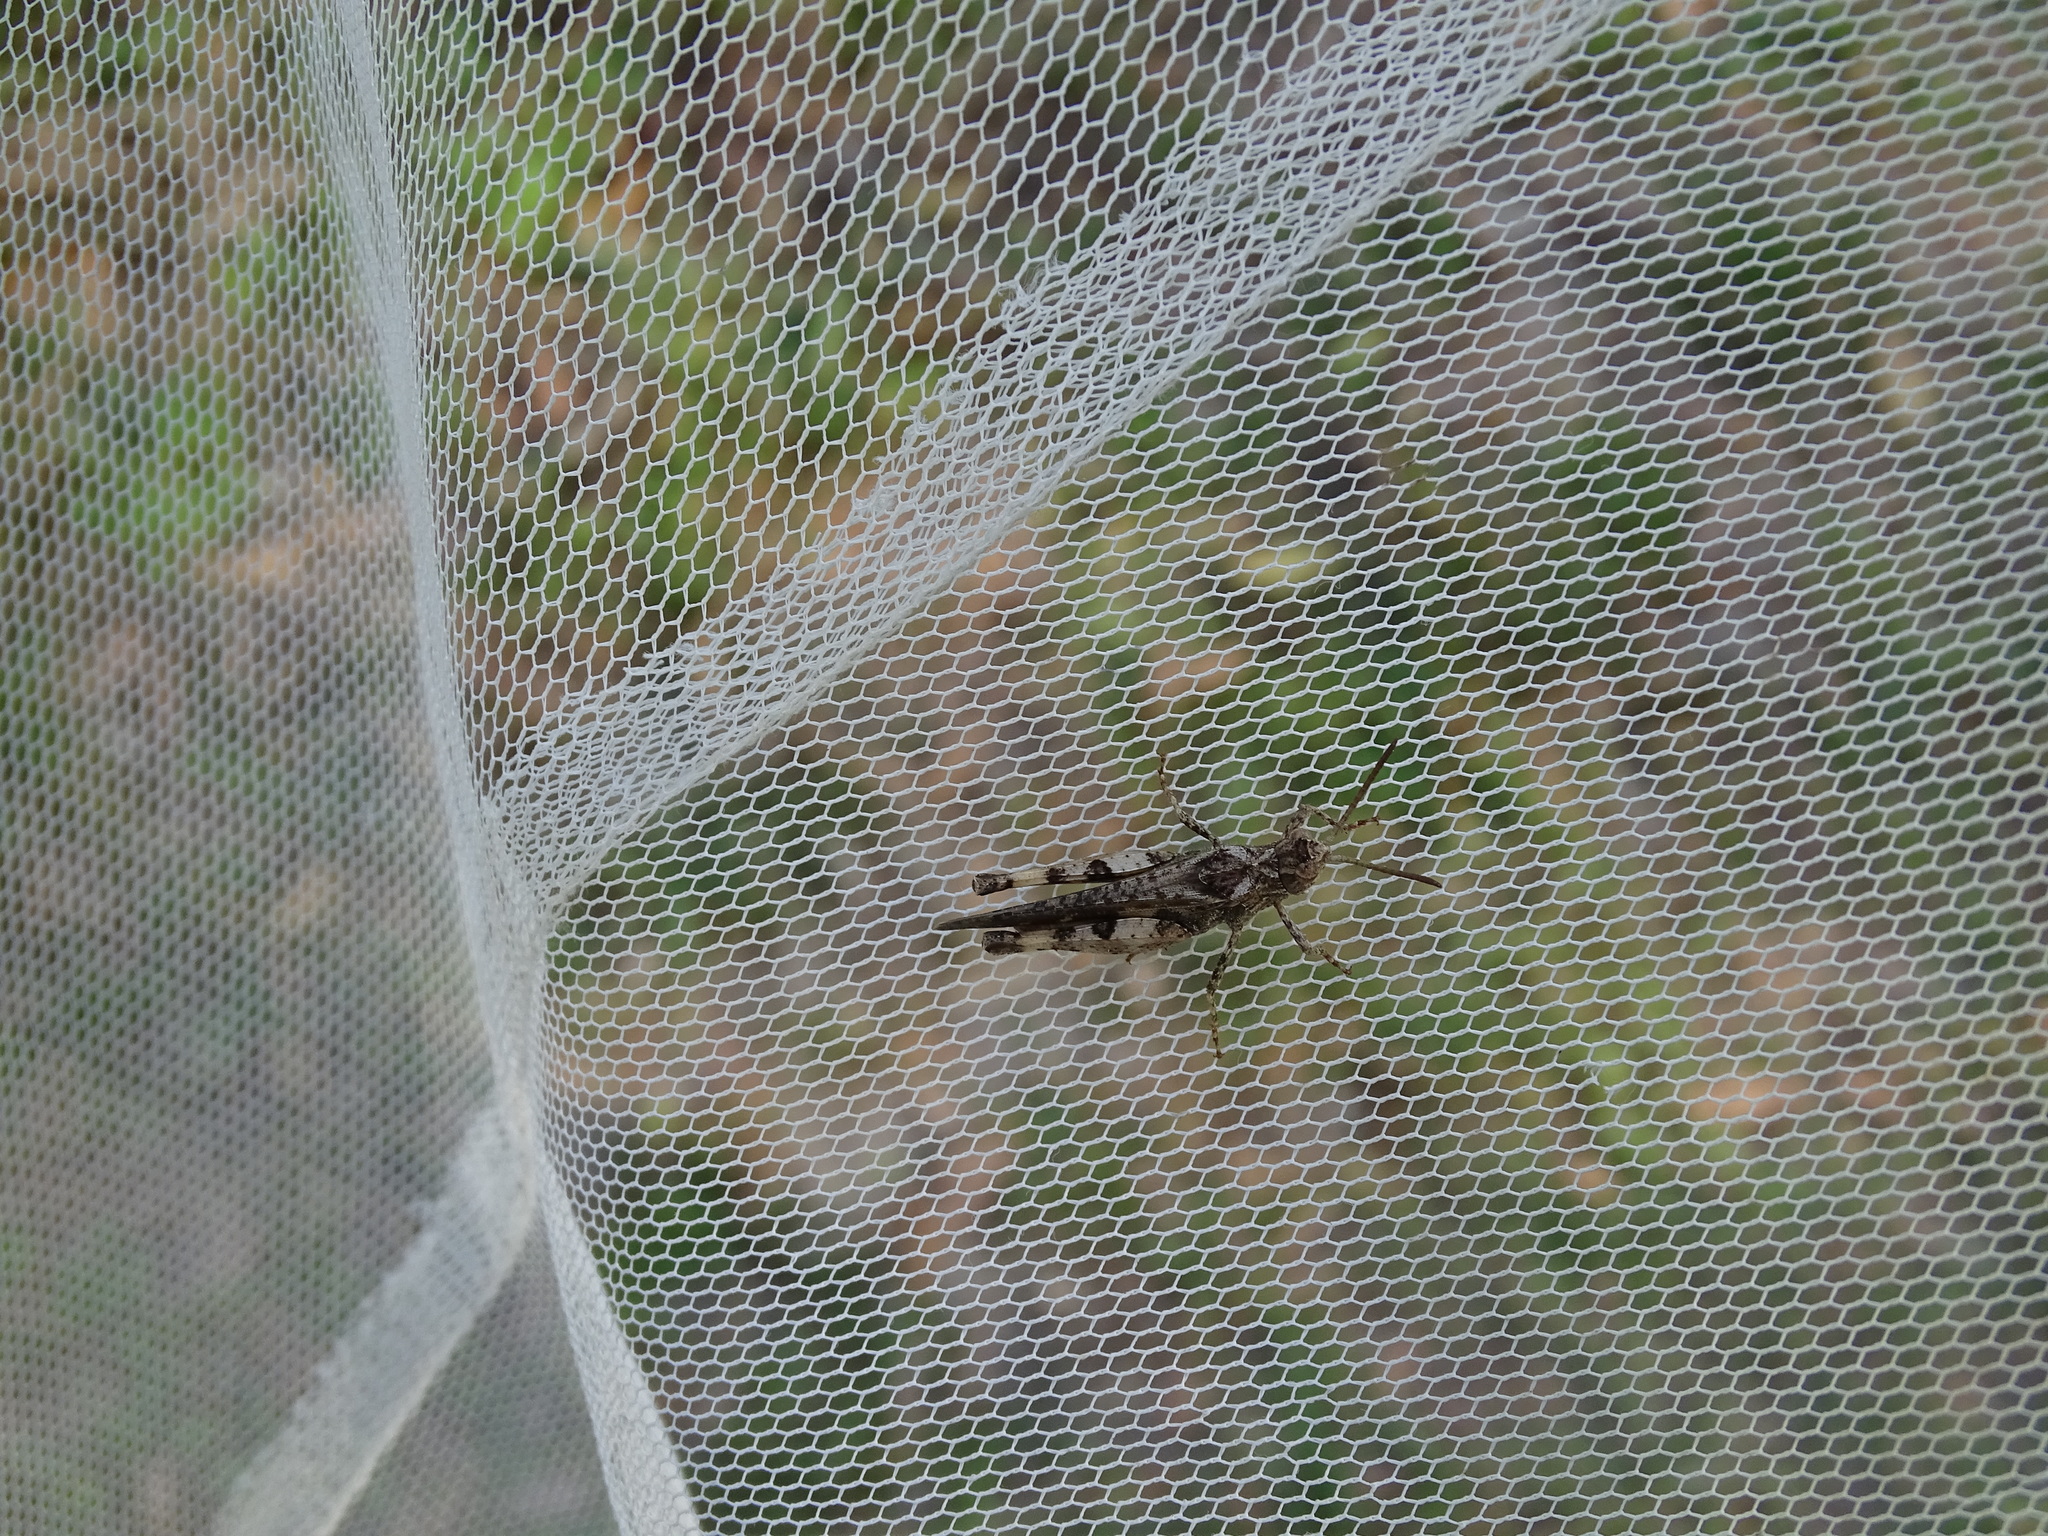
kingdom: Animalia
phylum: Arthropoda
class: Insecta
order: Orthoptera
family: Acrididae
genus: Chortophaga
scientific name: Chortophaga australior
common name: Southern green-striped grasshopper
